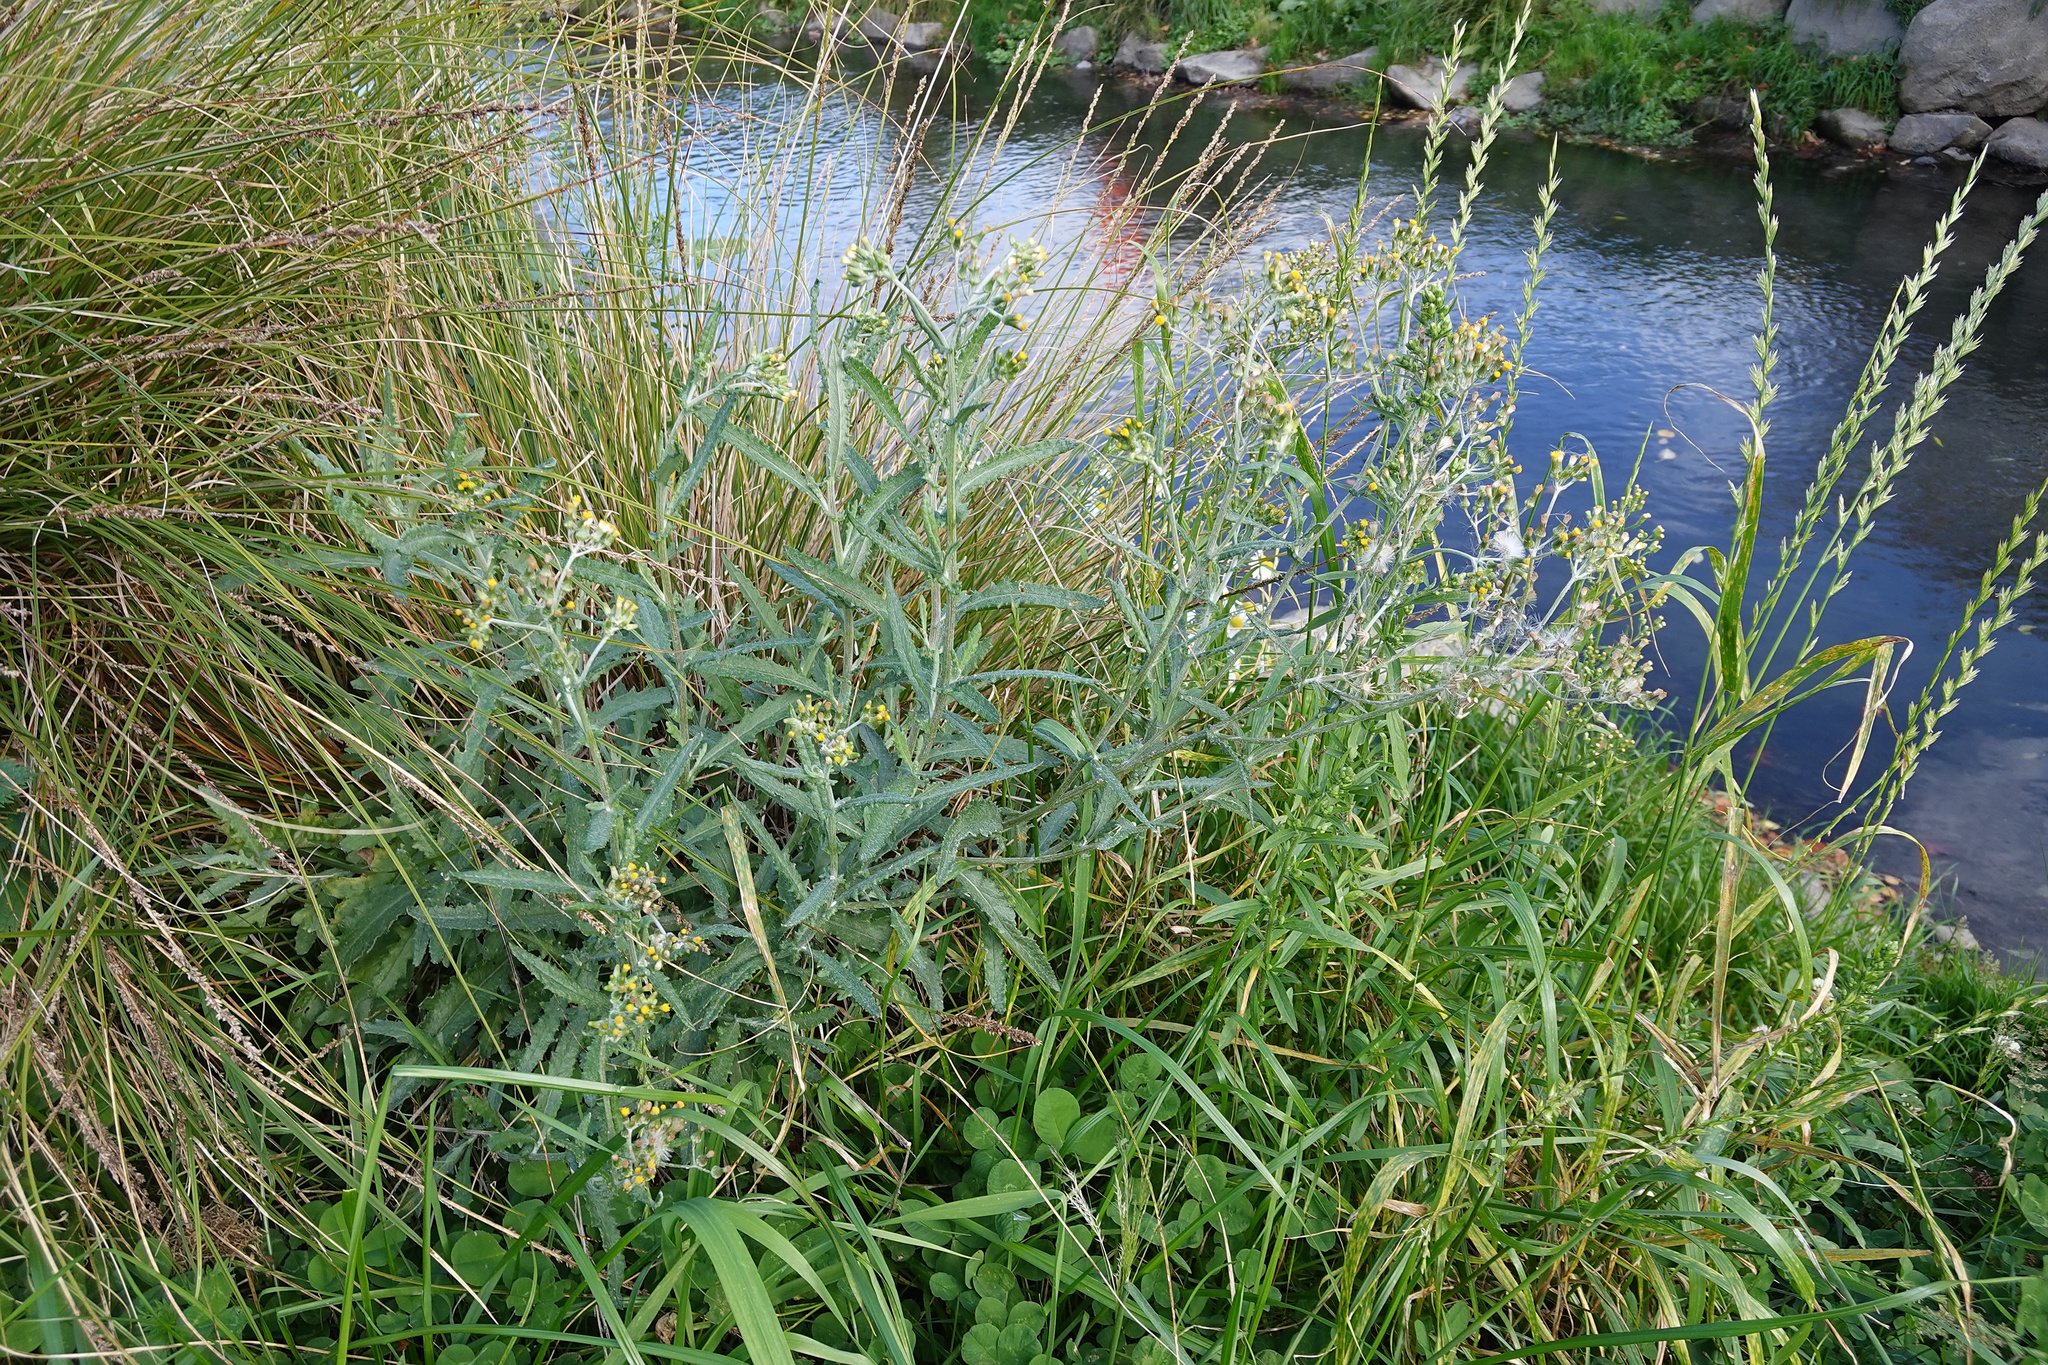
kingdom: Plantae
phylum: Tracheophyta
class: Magnoliopsida
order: Asterales
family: Asteraceae
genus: Senecio
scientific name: Senecio glomeratus
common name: Cutleaf burnweed
